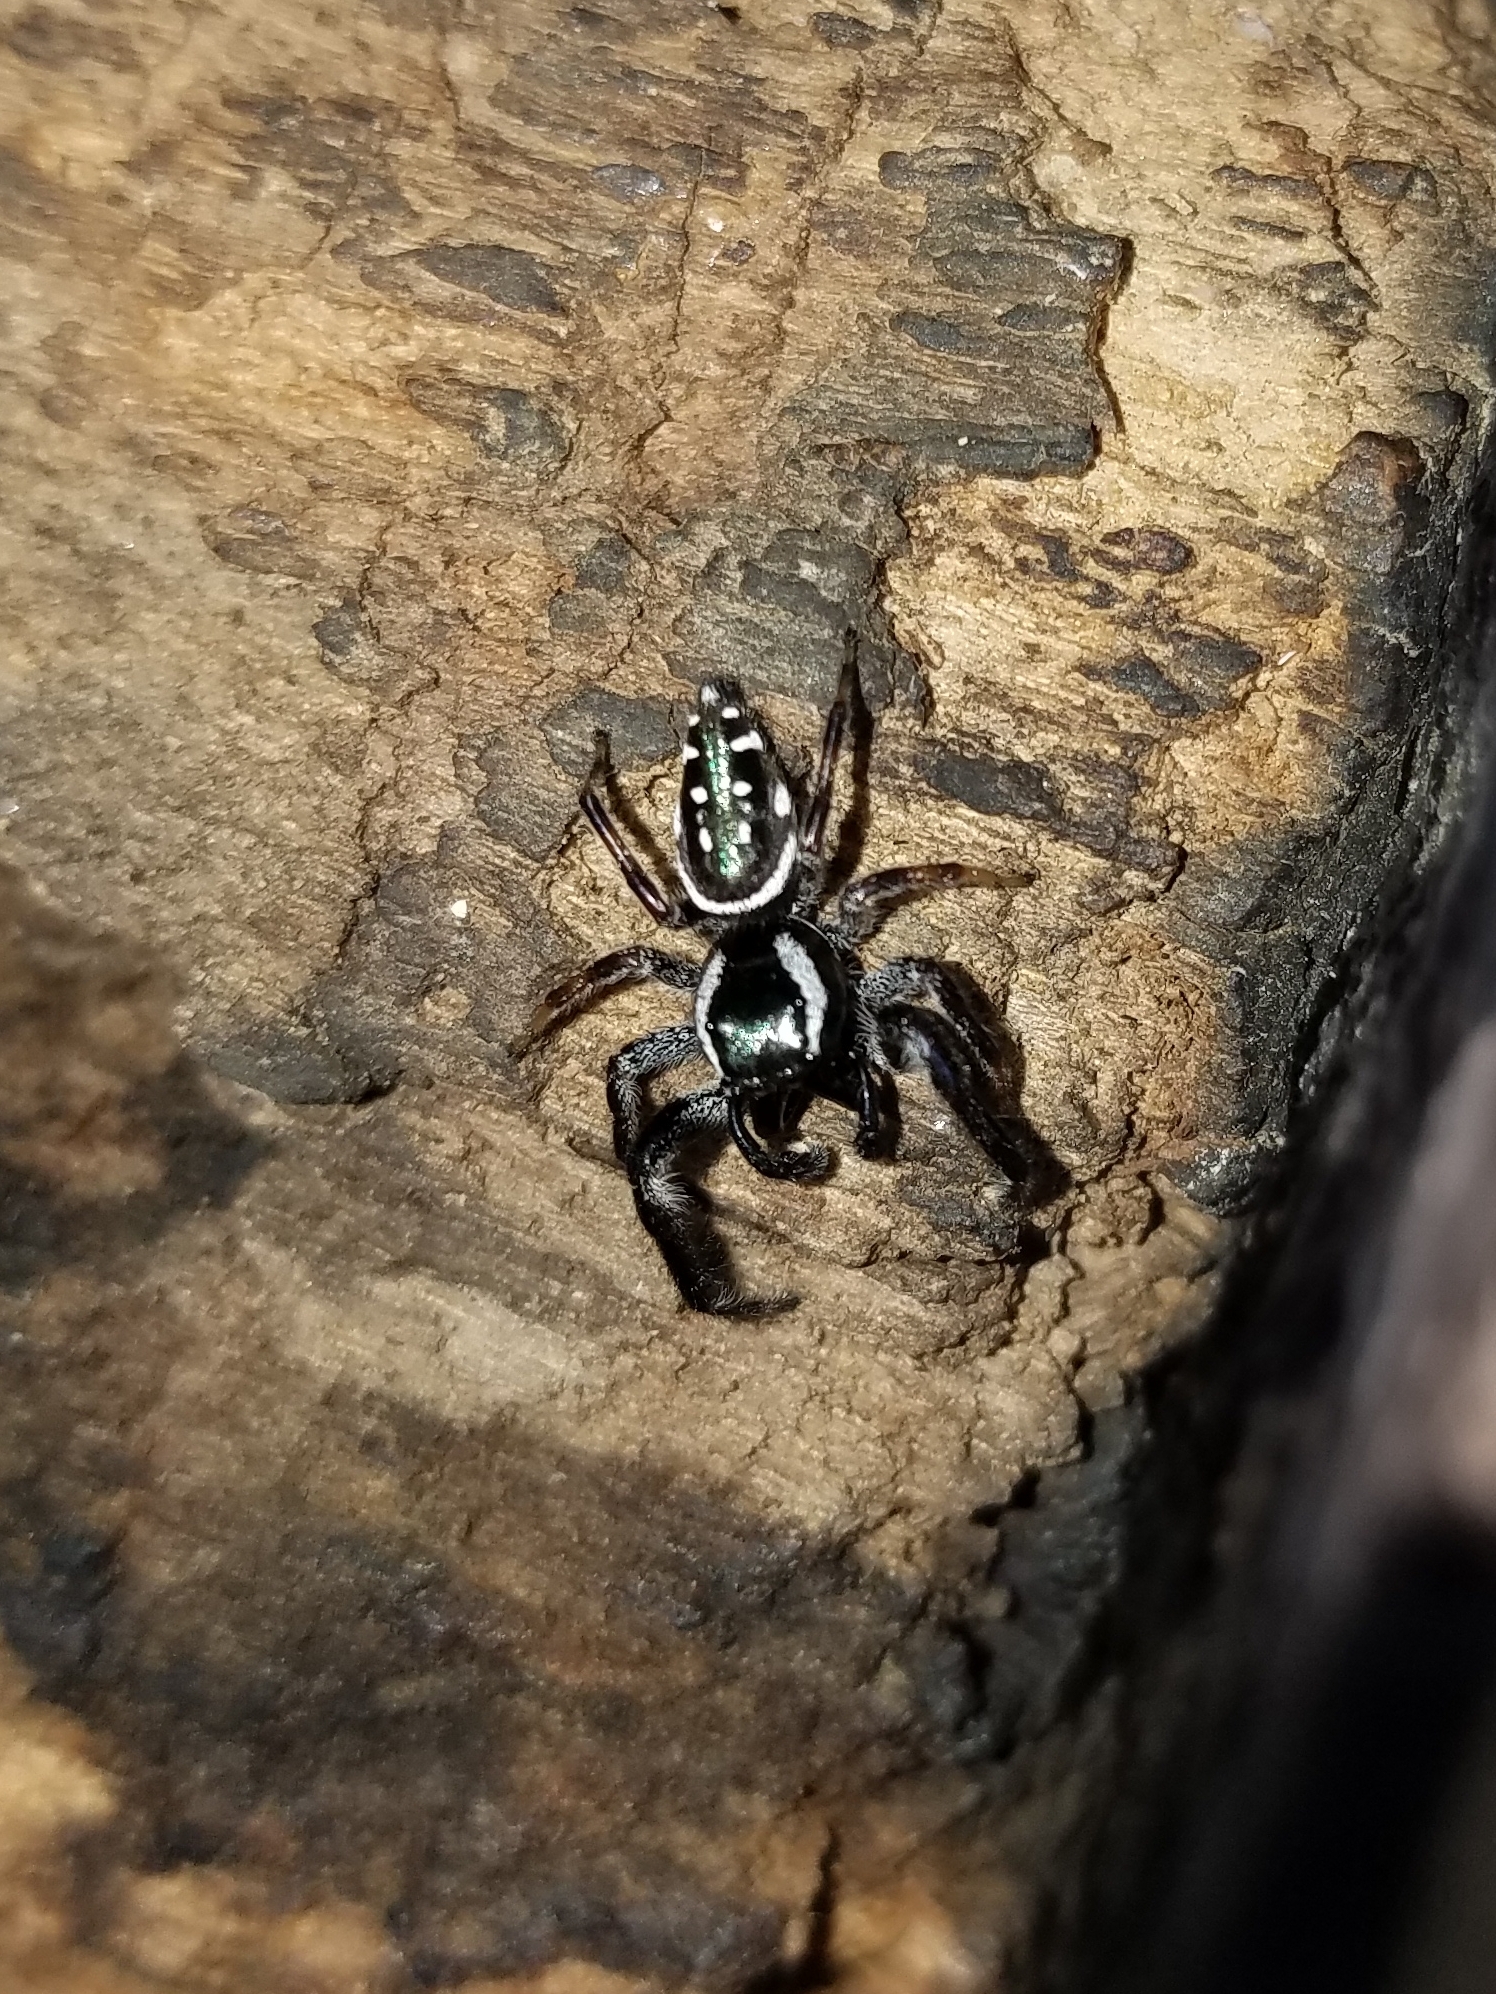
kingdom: Animalia
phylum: Arthropoda
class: Arachnida
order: Araneae
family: Salticidae
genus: Paraphidippus
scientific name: Paraphidippus aurantius
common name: Jumping spiders
